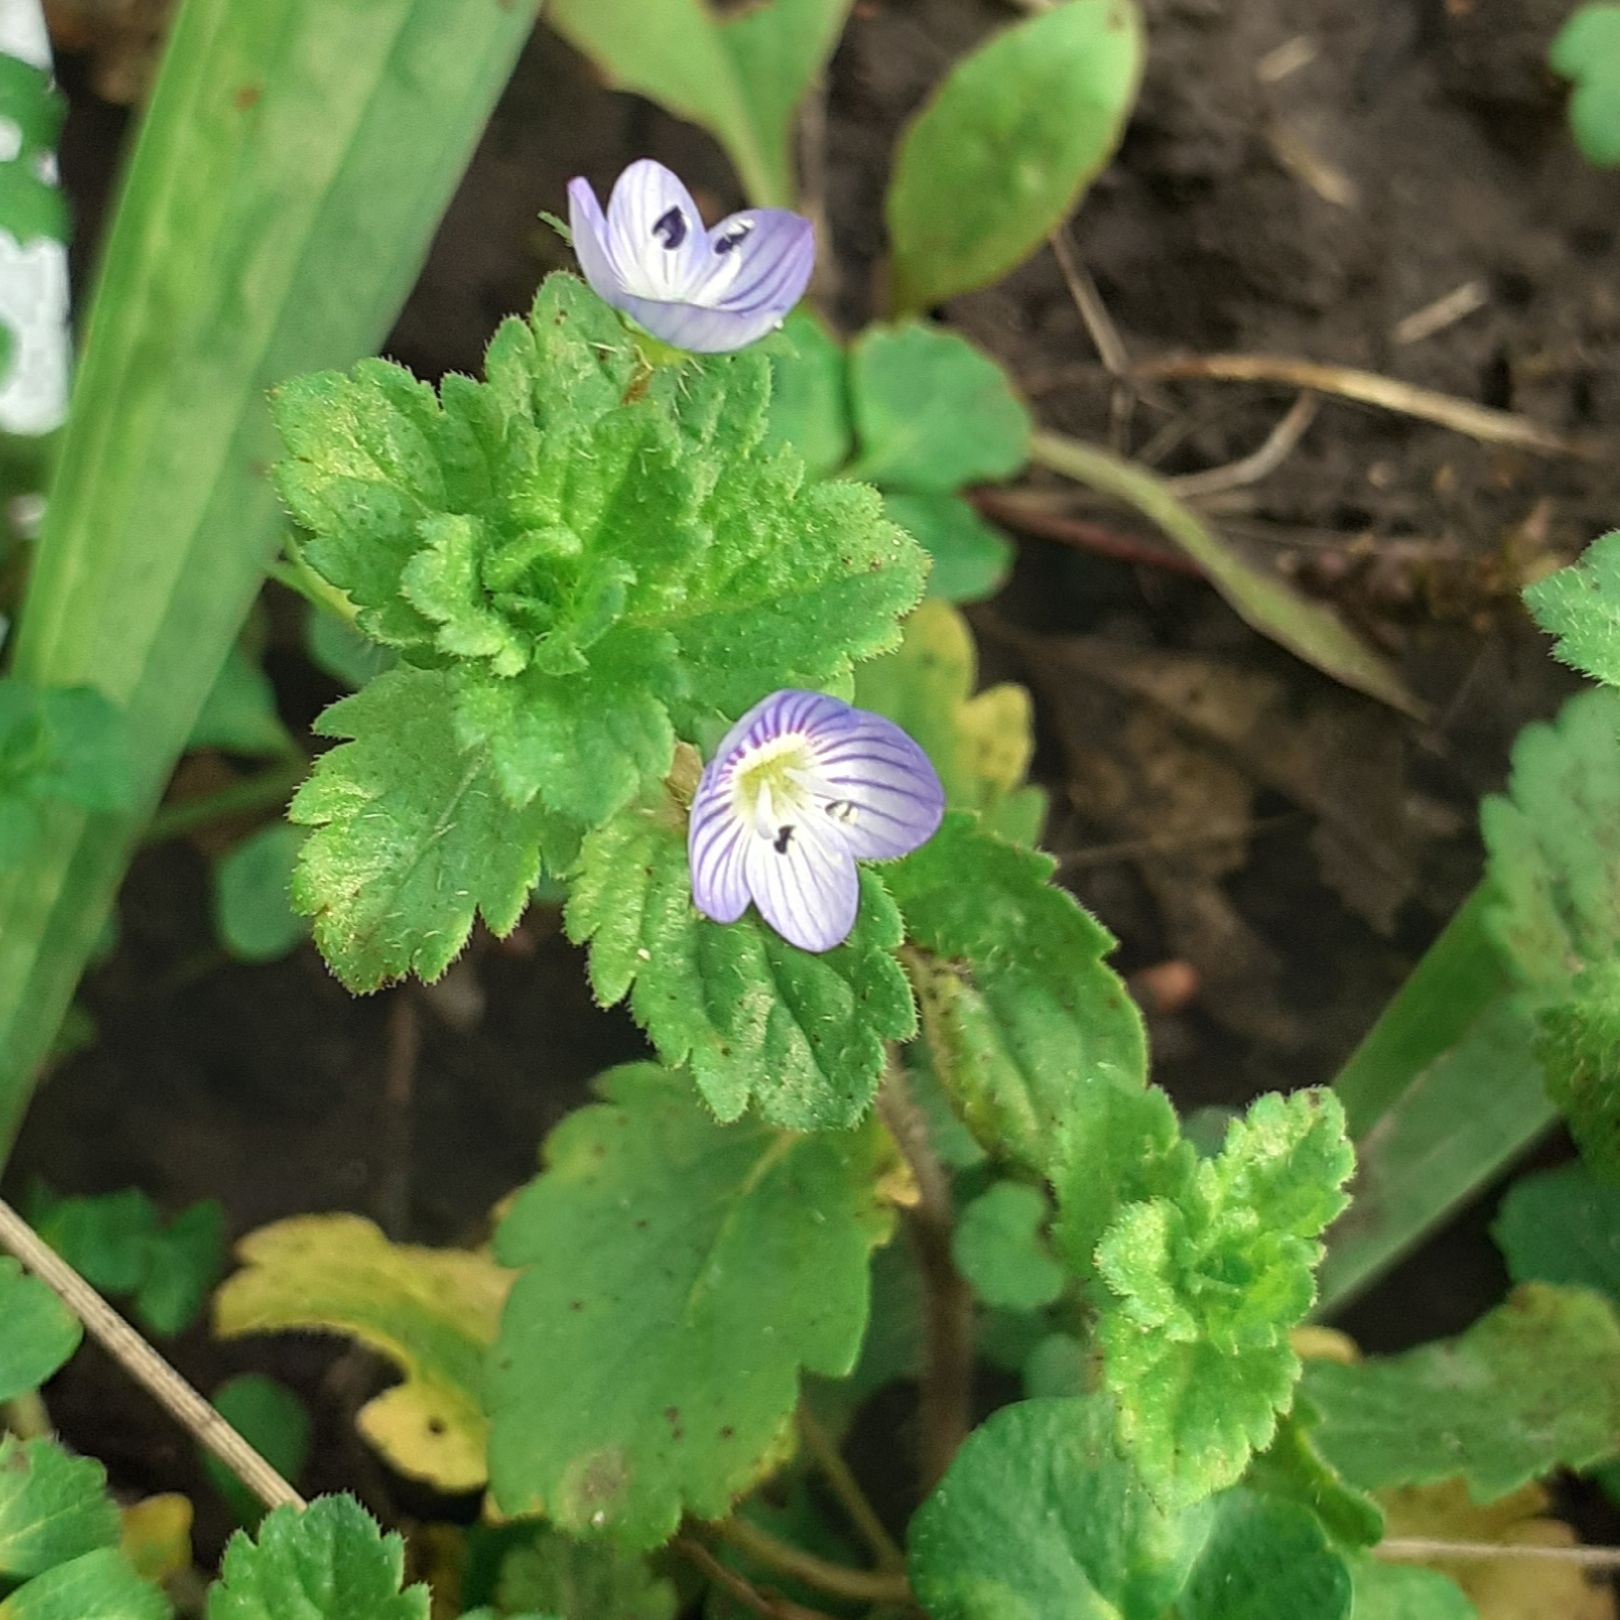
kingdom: Plantae
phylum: Tracheophyta
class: Magnoliopsida
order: Lamiales
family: Plantaginaceae
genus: Veronica
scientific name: Veronica persica
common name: Common field-speedwell
